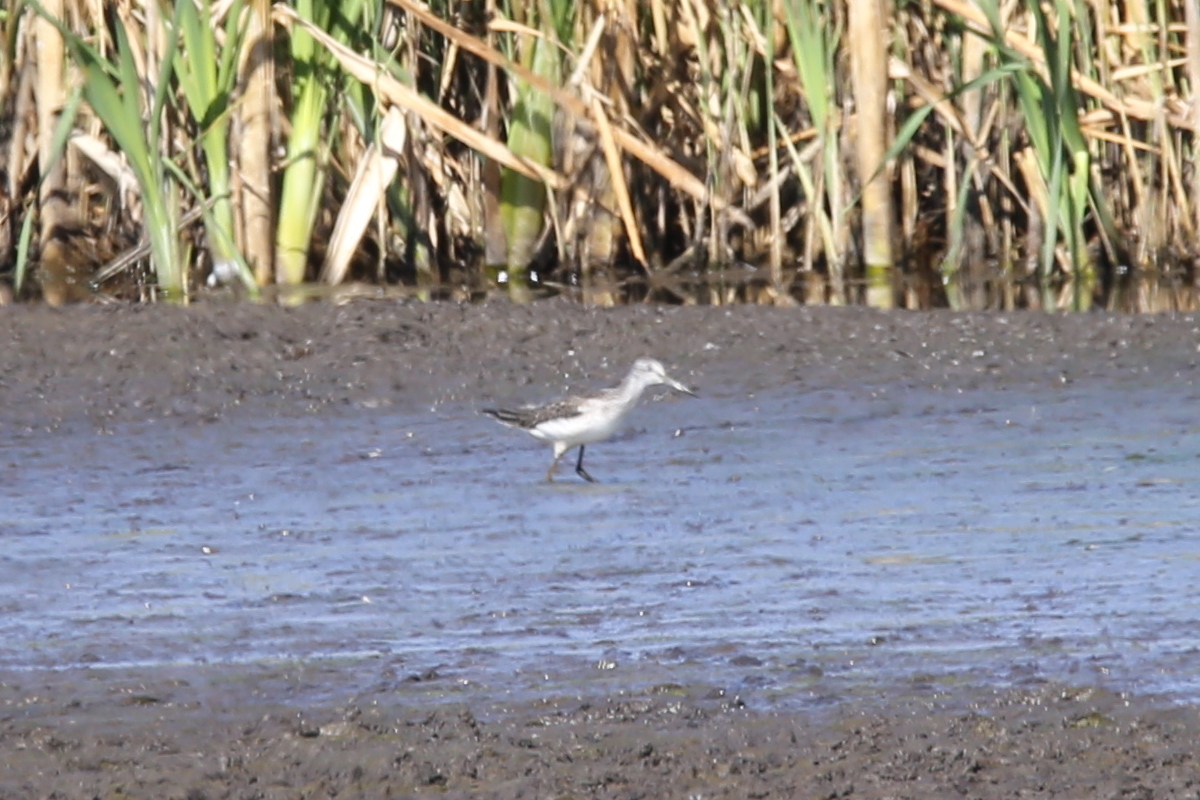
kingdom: Animalia
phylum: Chordata
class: Aves
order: Charadriiformes
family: Scolopacidae
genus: Tringa
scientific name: Tringa nebularia
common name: Common greenshank
